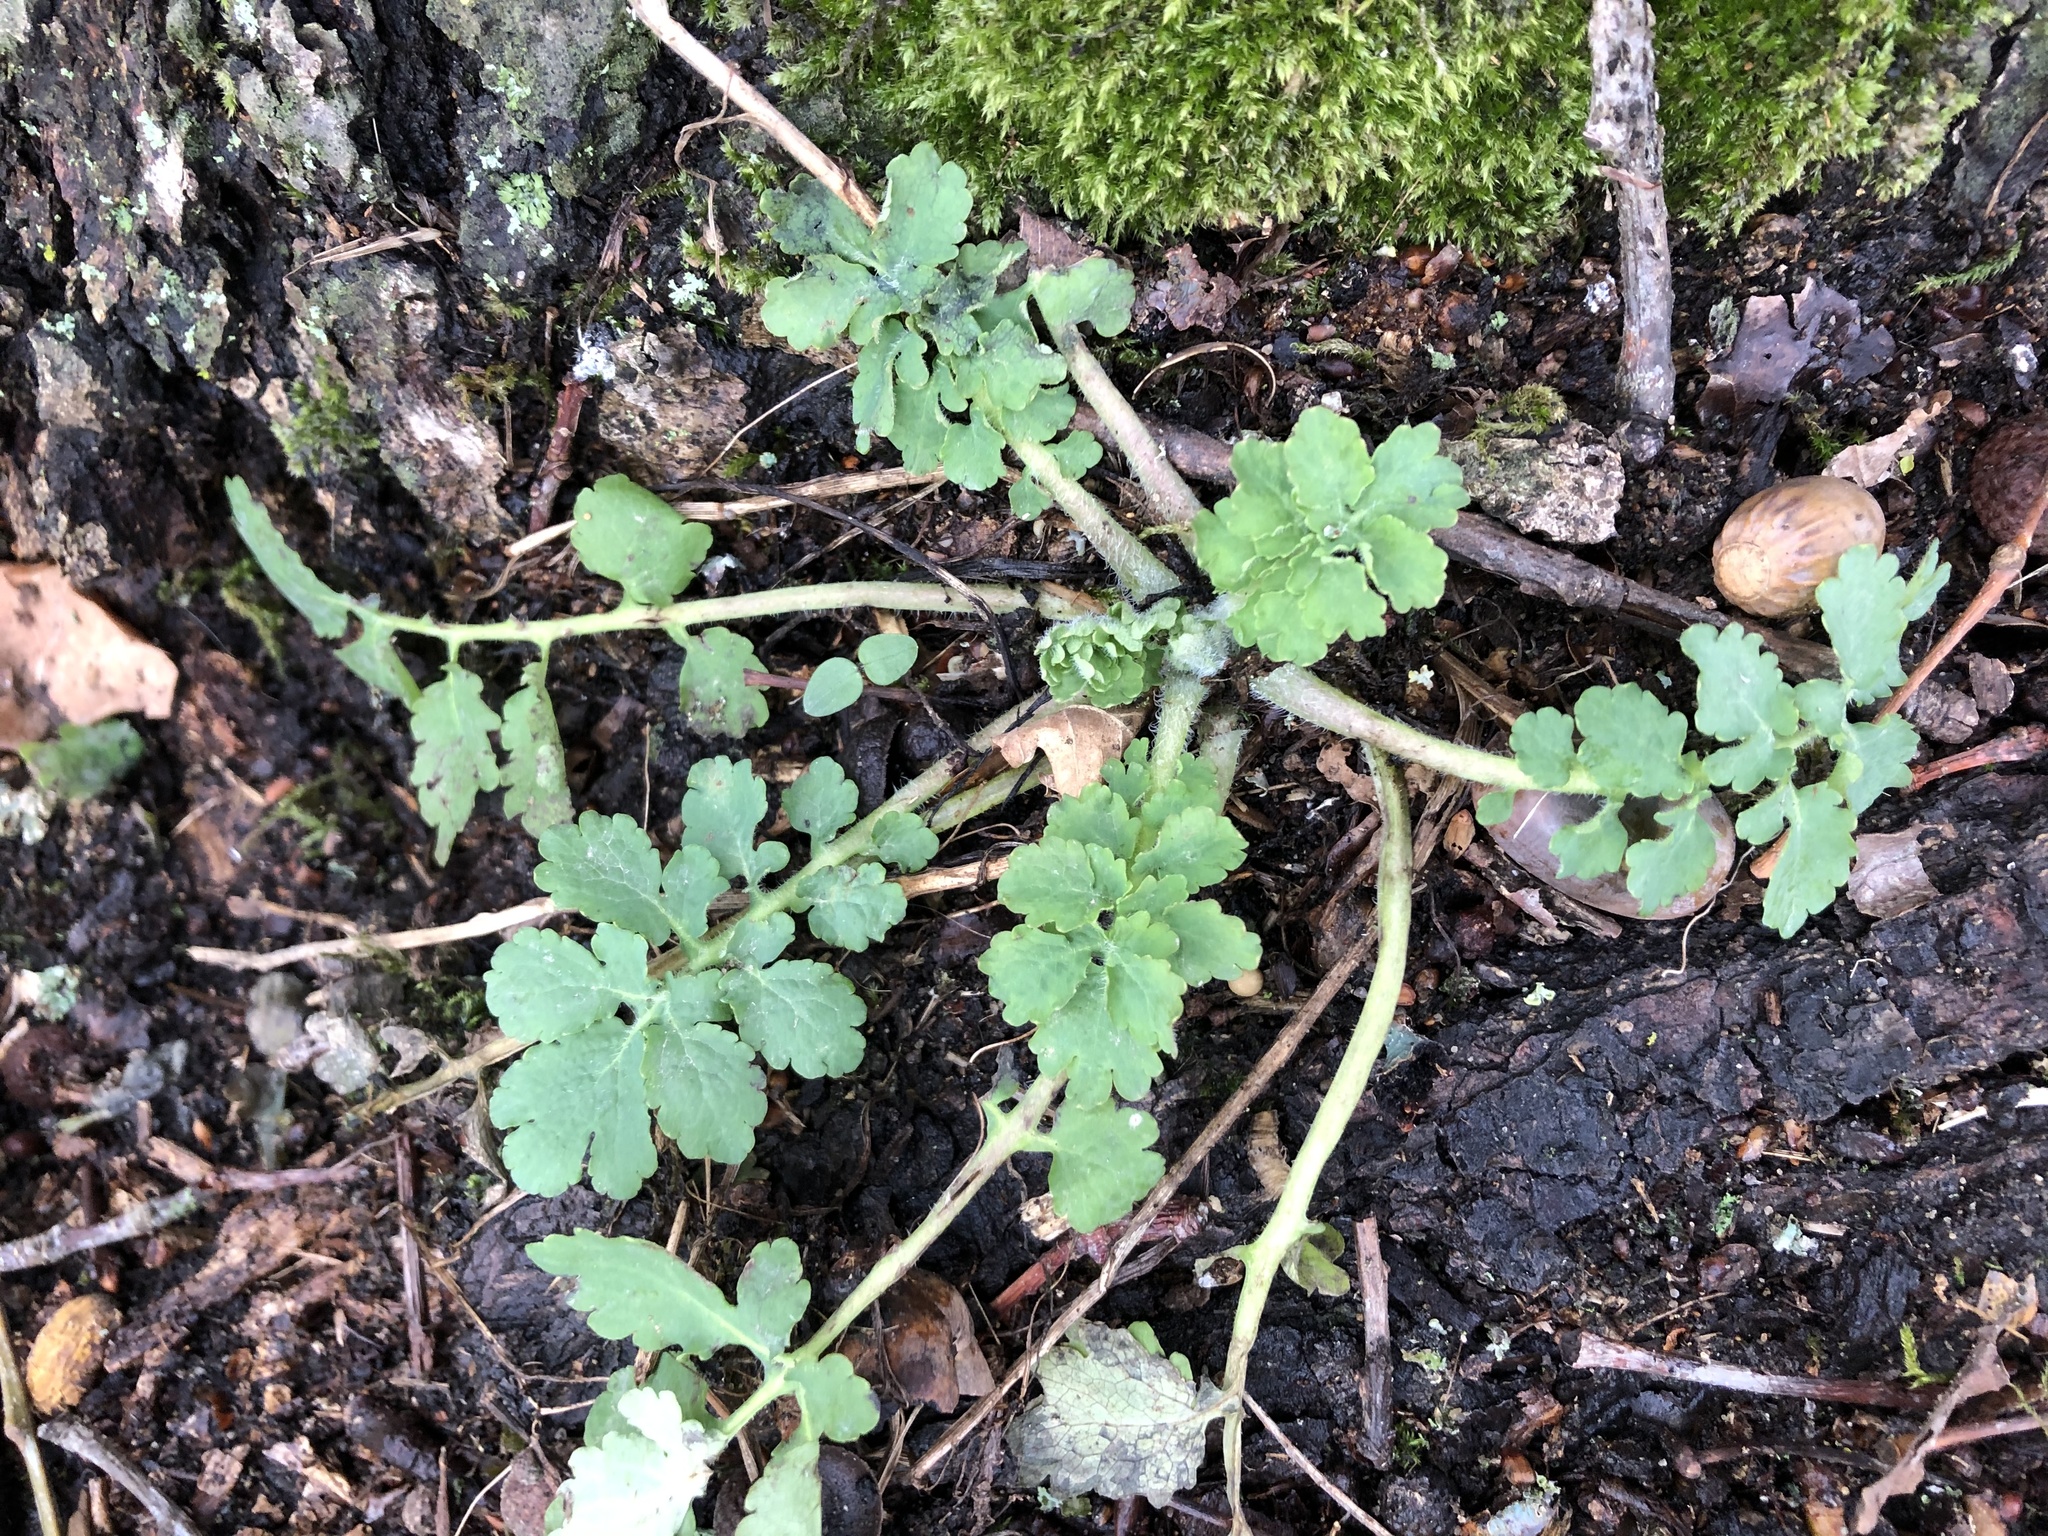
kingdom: Plantae
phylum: Tracheophyta
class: Magnoliopsida
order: Ranunculales
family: Papaveraceae
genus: Chelidonium
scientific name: Chelidonium majus
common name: Greater celandine
